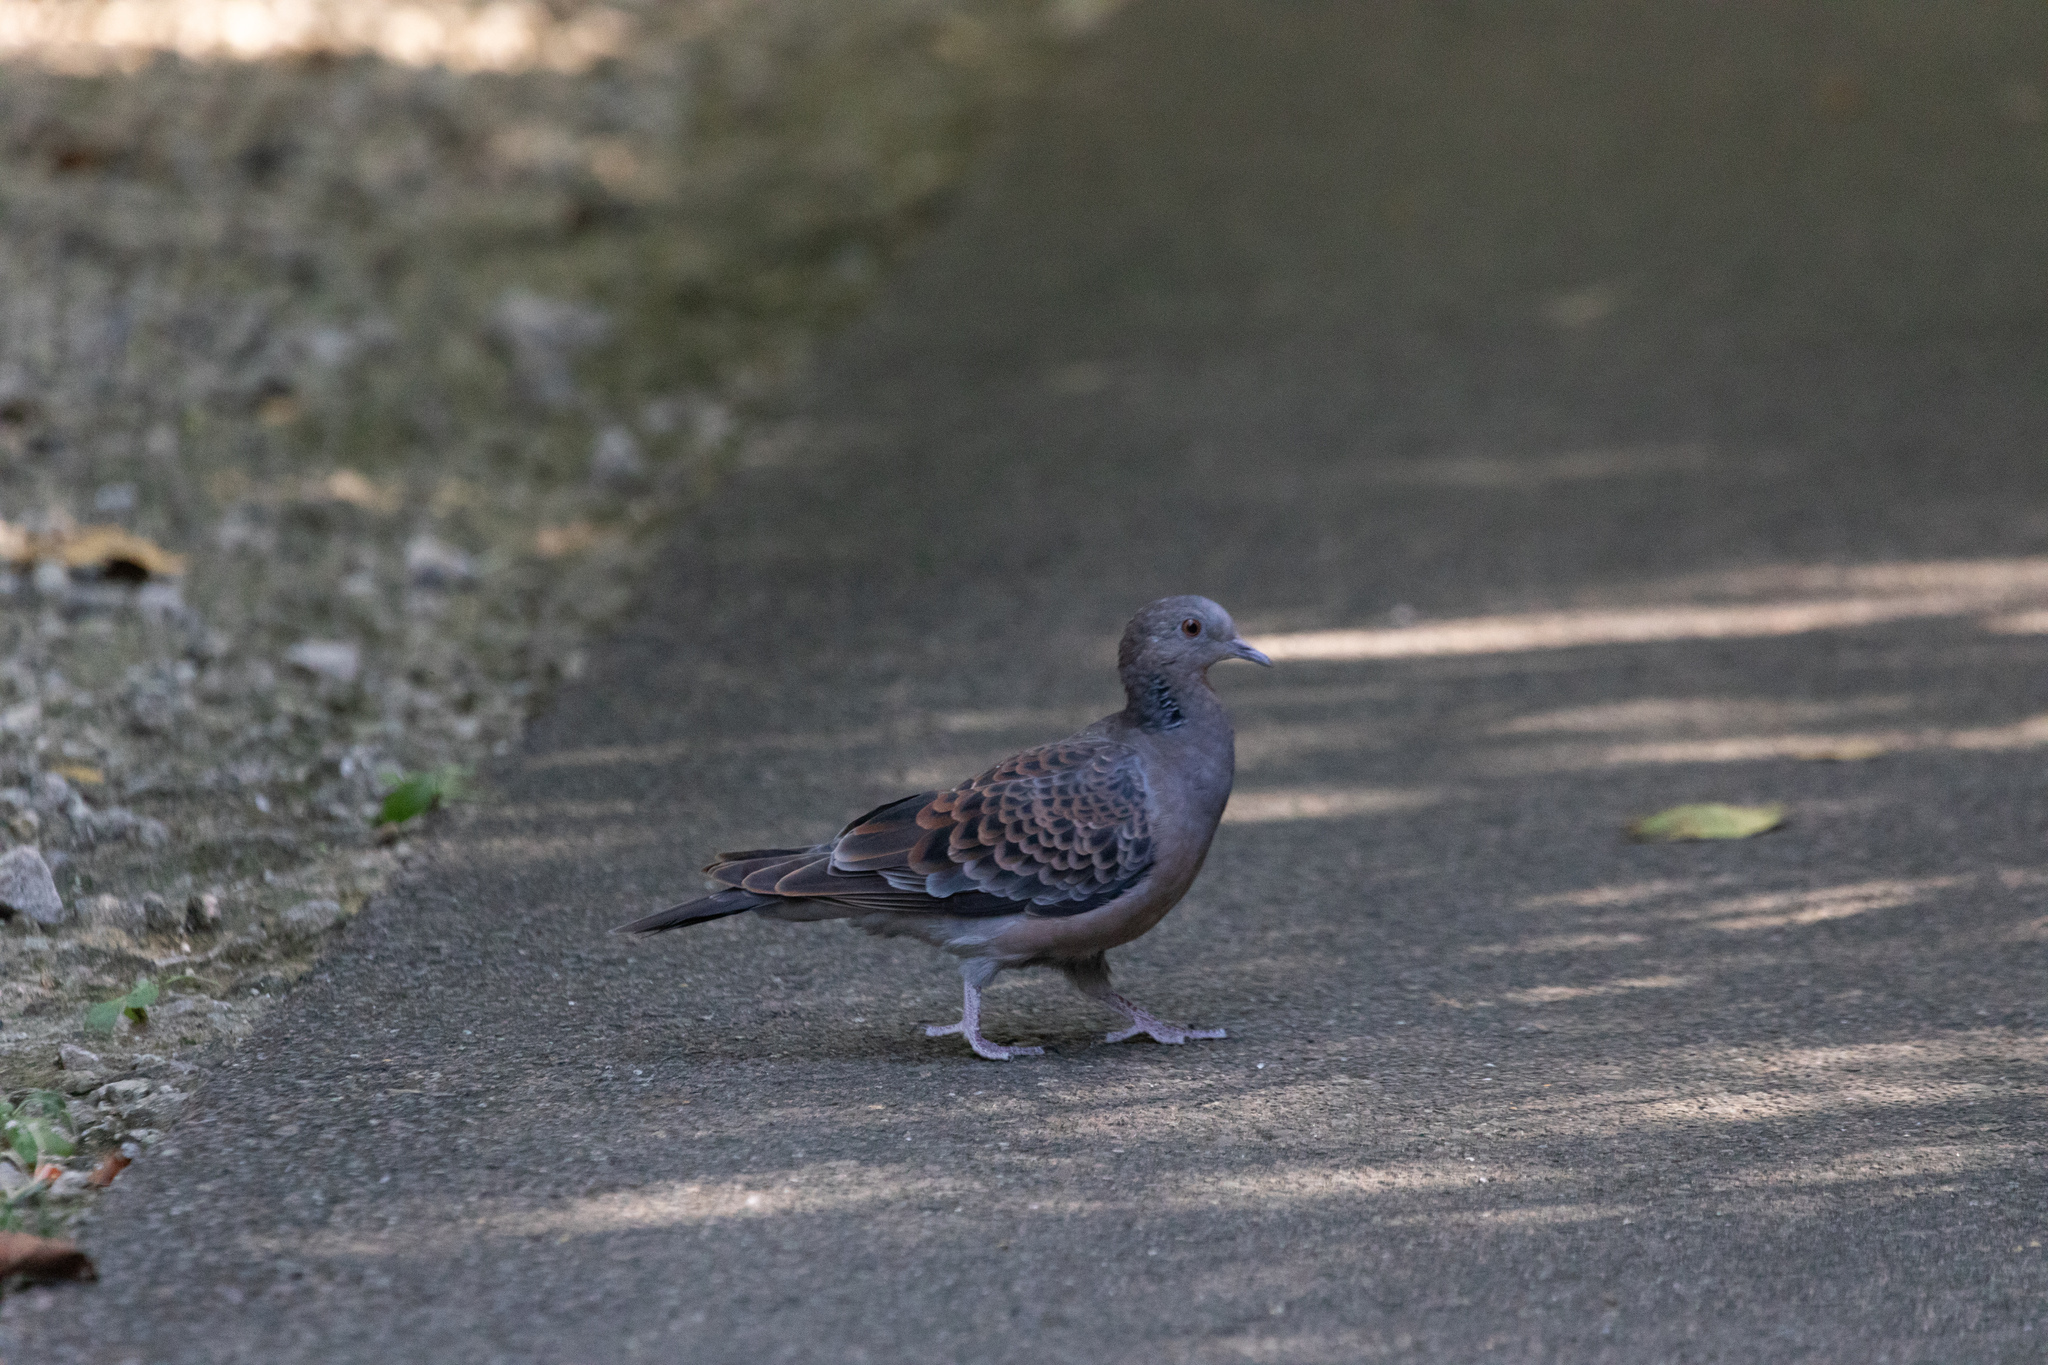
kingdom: Animalia
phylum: Chordata
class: Aves
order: Columbiformes
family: Columbidae
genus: Streptopelia
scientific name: Streptopelia orientalis
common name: Oriental turtle dove
